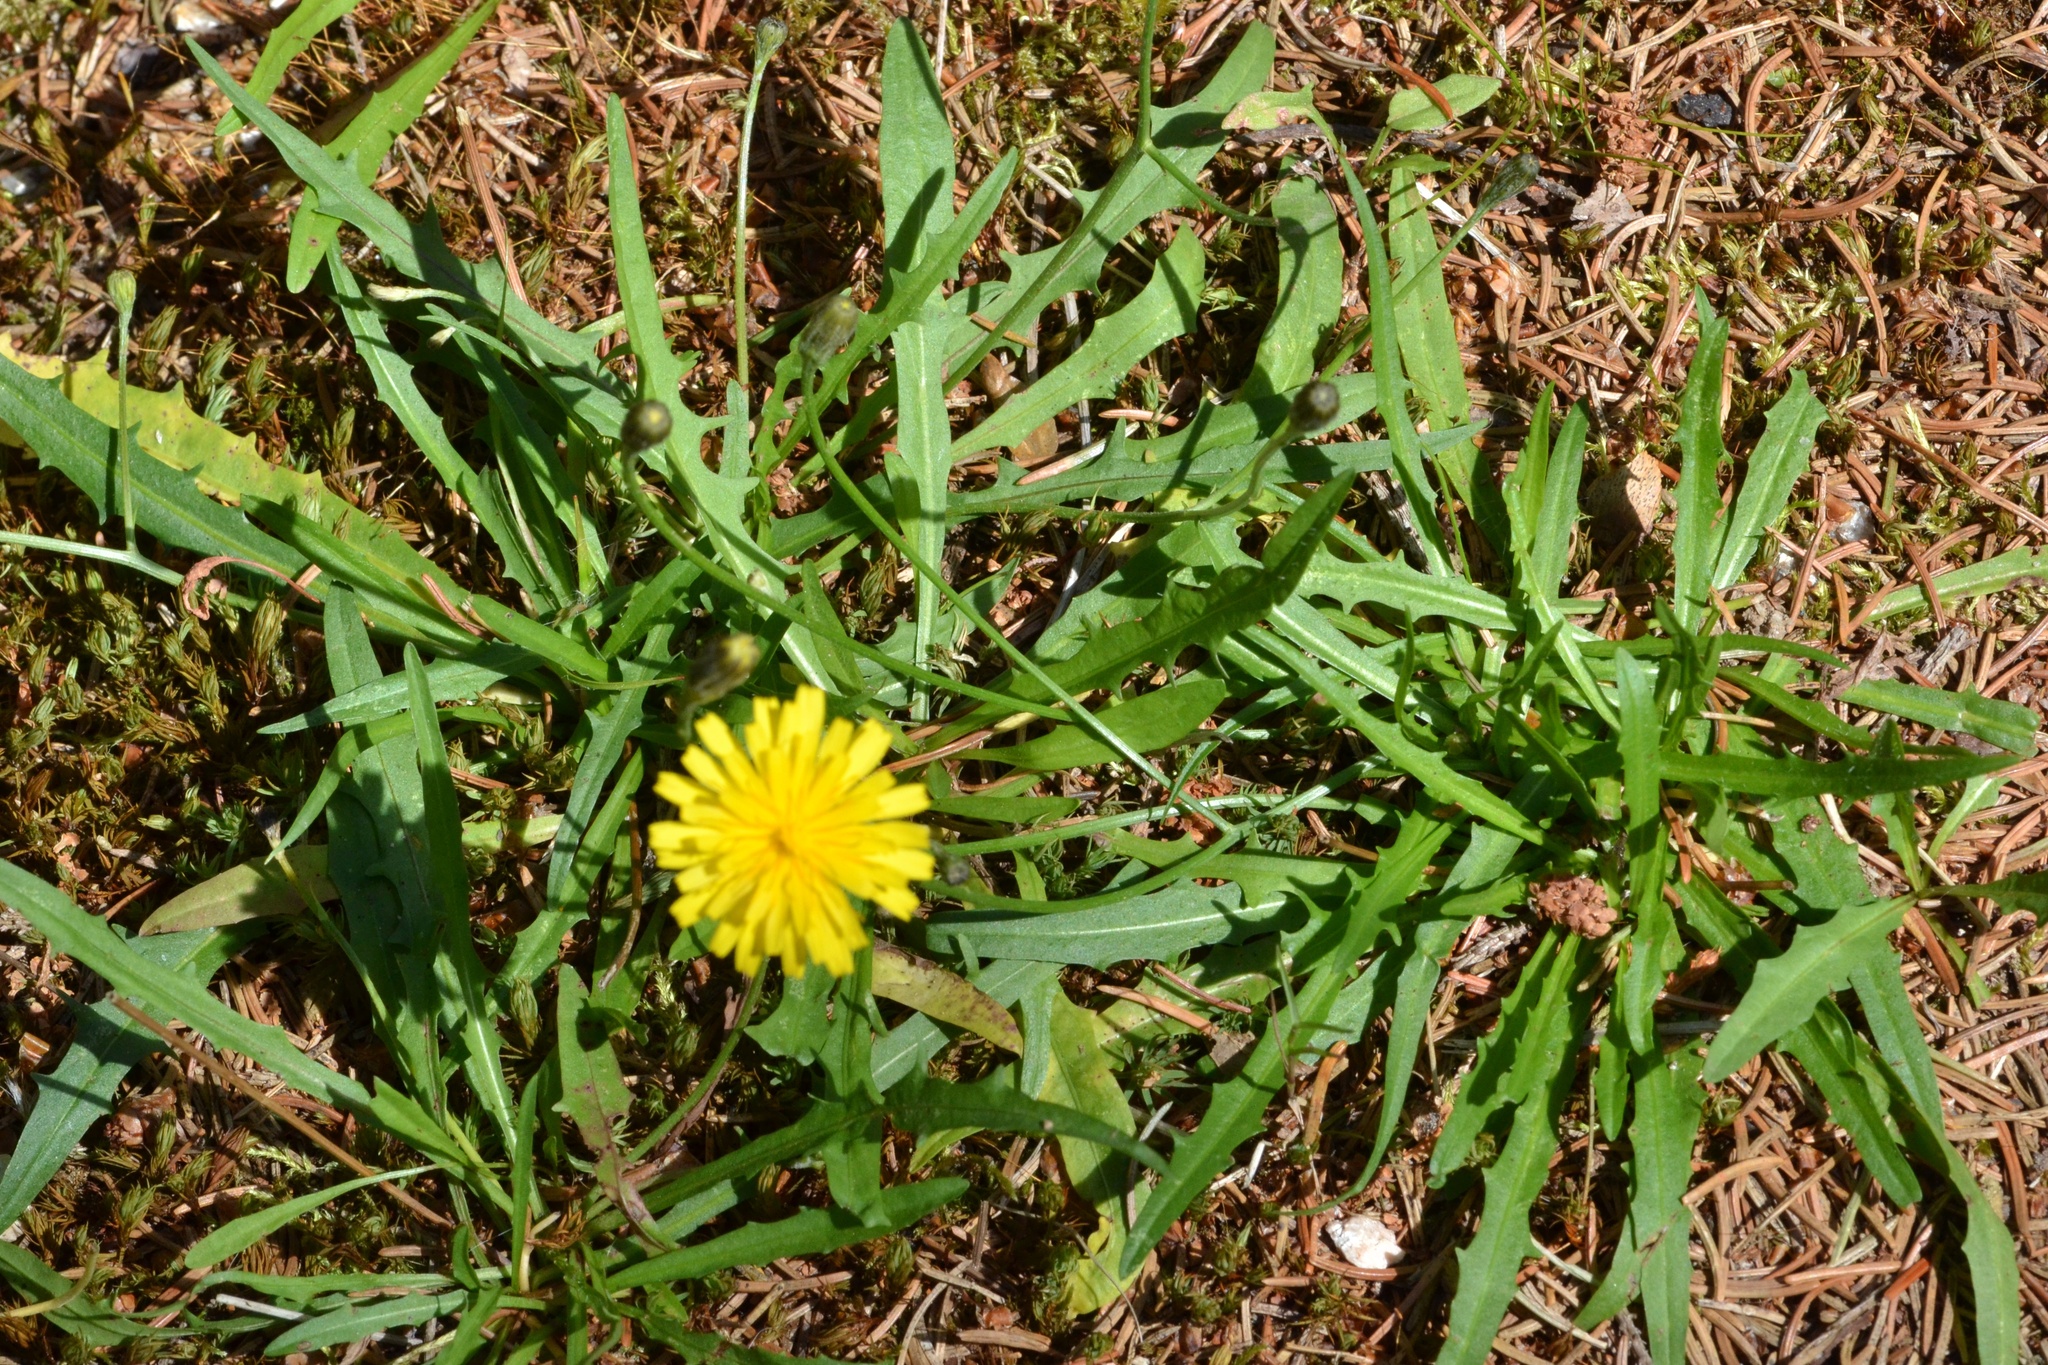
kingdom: Plantae
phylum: Tracheophyta
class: Magnoliopsida
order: Asterales
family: Asteraceae
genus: Scorzoneroides
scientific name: Scorzoneroides autumnalis
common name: Autumn hawkbit
